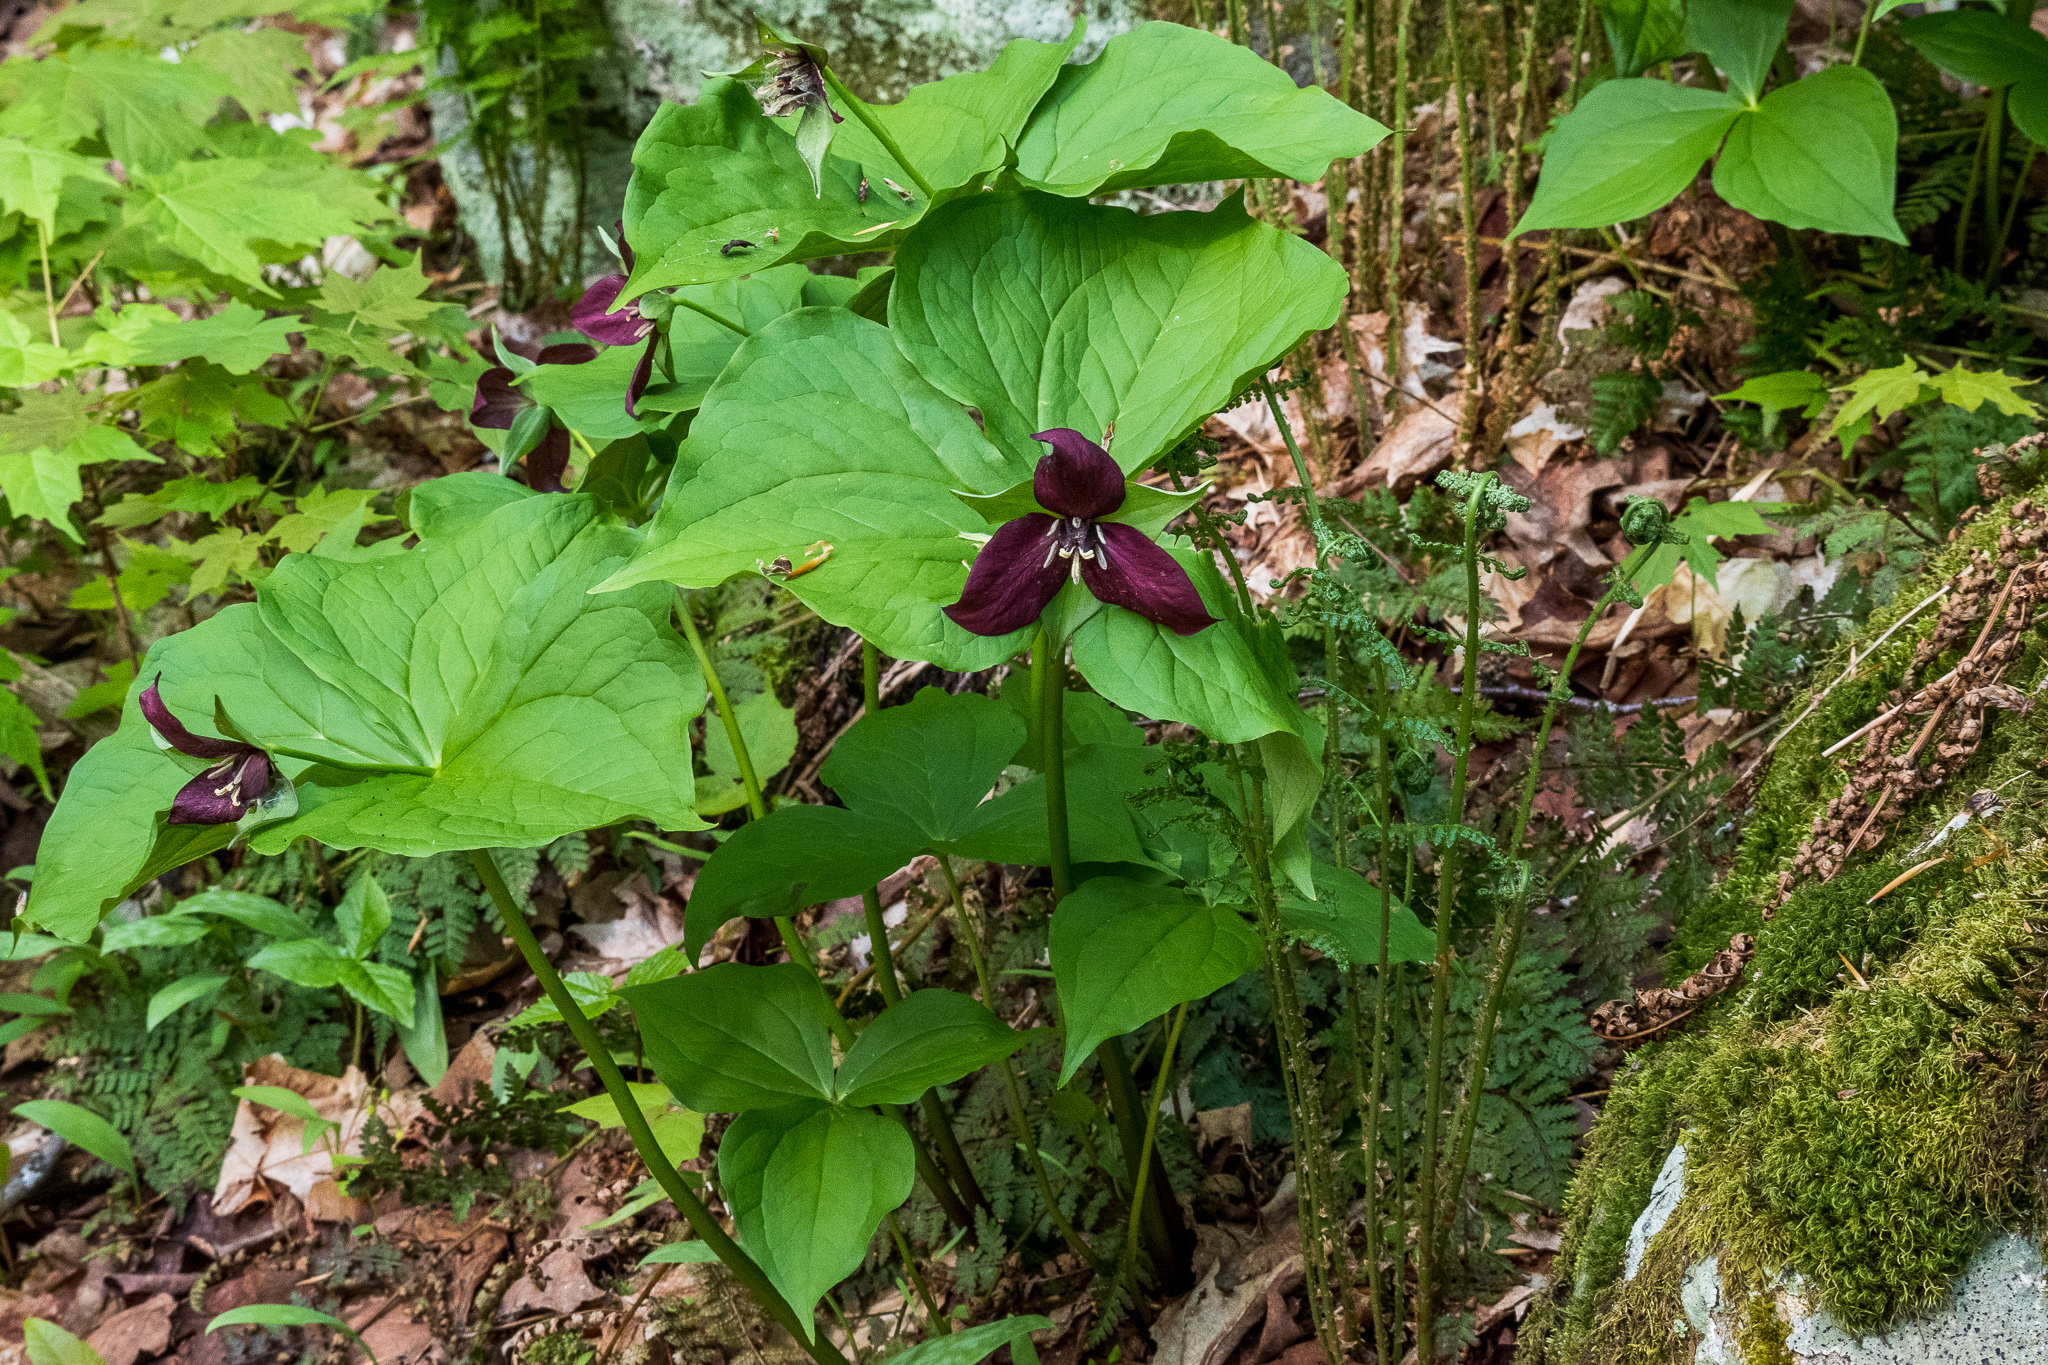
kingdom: Plantae
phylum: Tracheophyta
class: Liliopsida
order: Liliales
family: Melanthiaceae
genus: Trillium
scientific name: Trillium erectum
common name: Purple trillium
